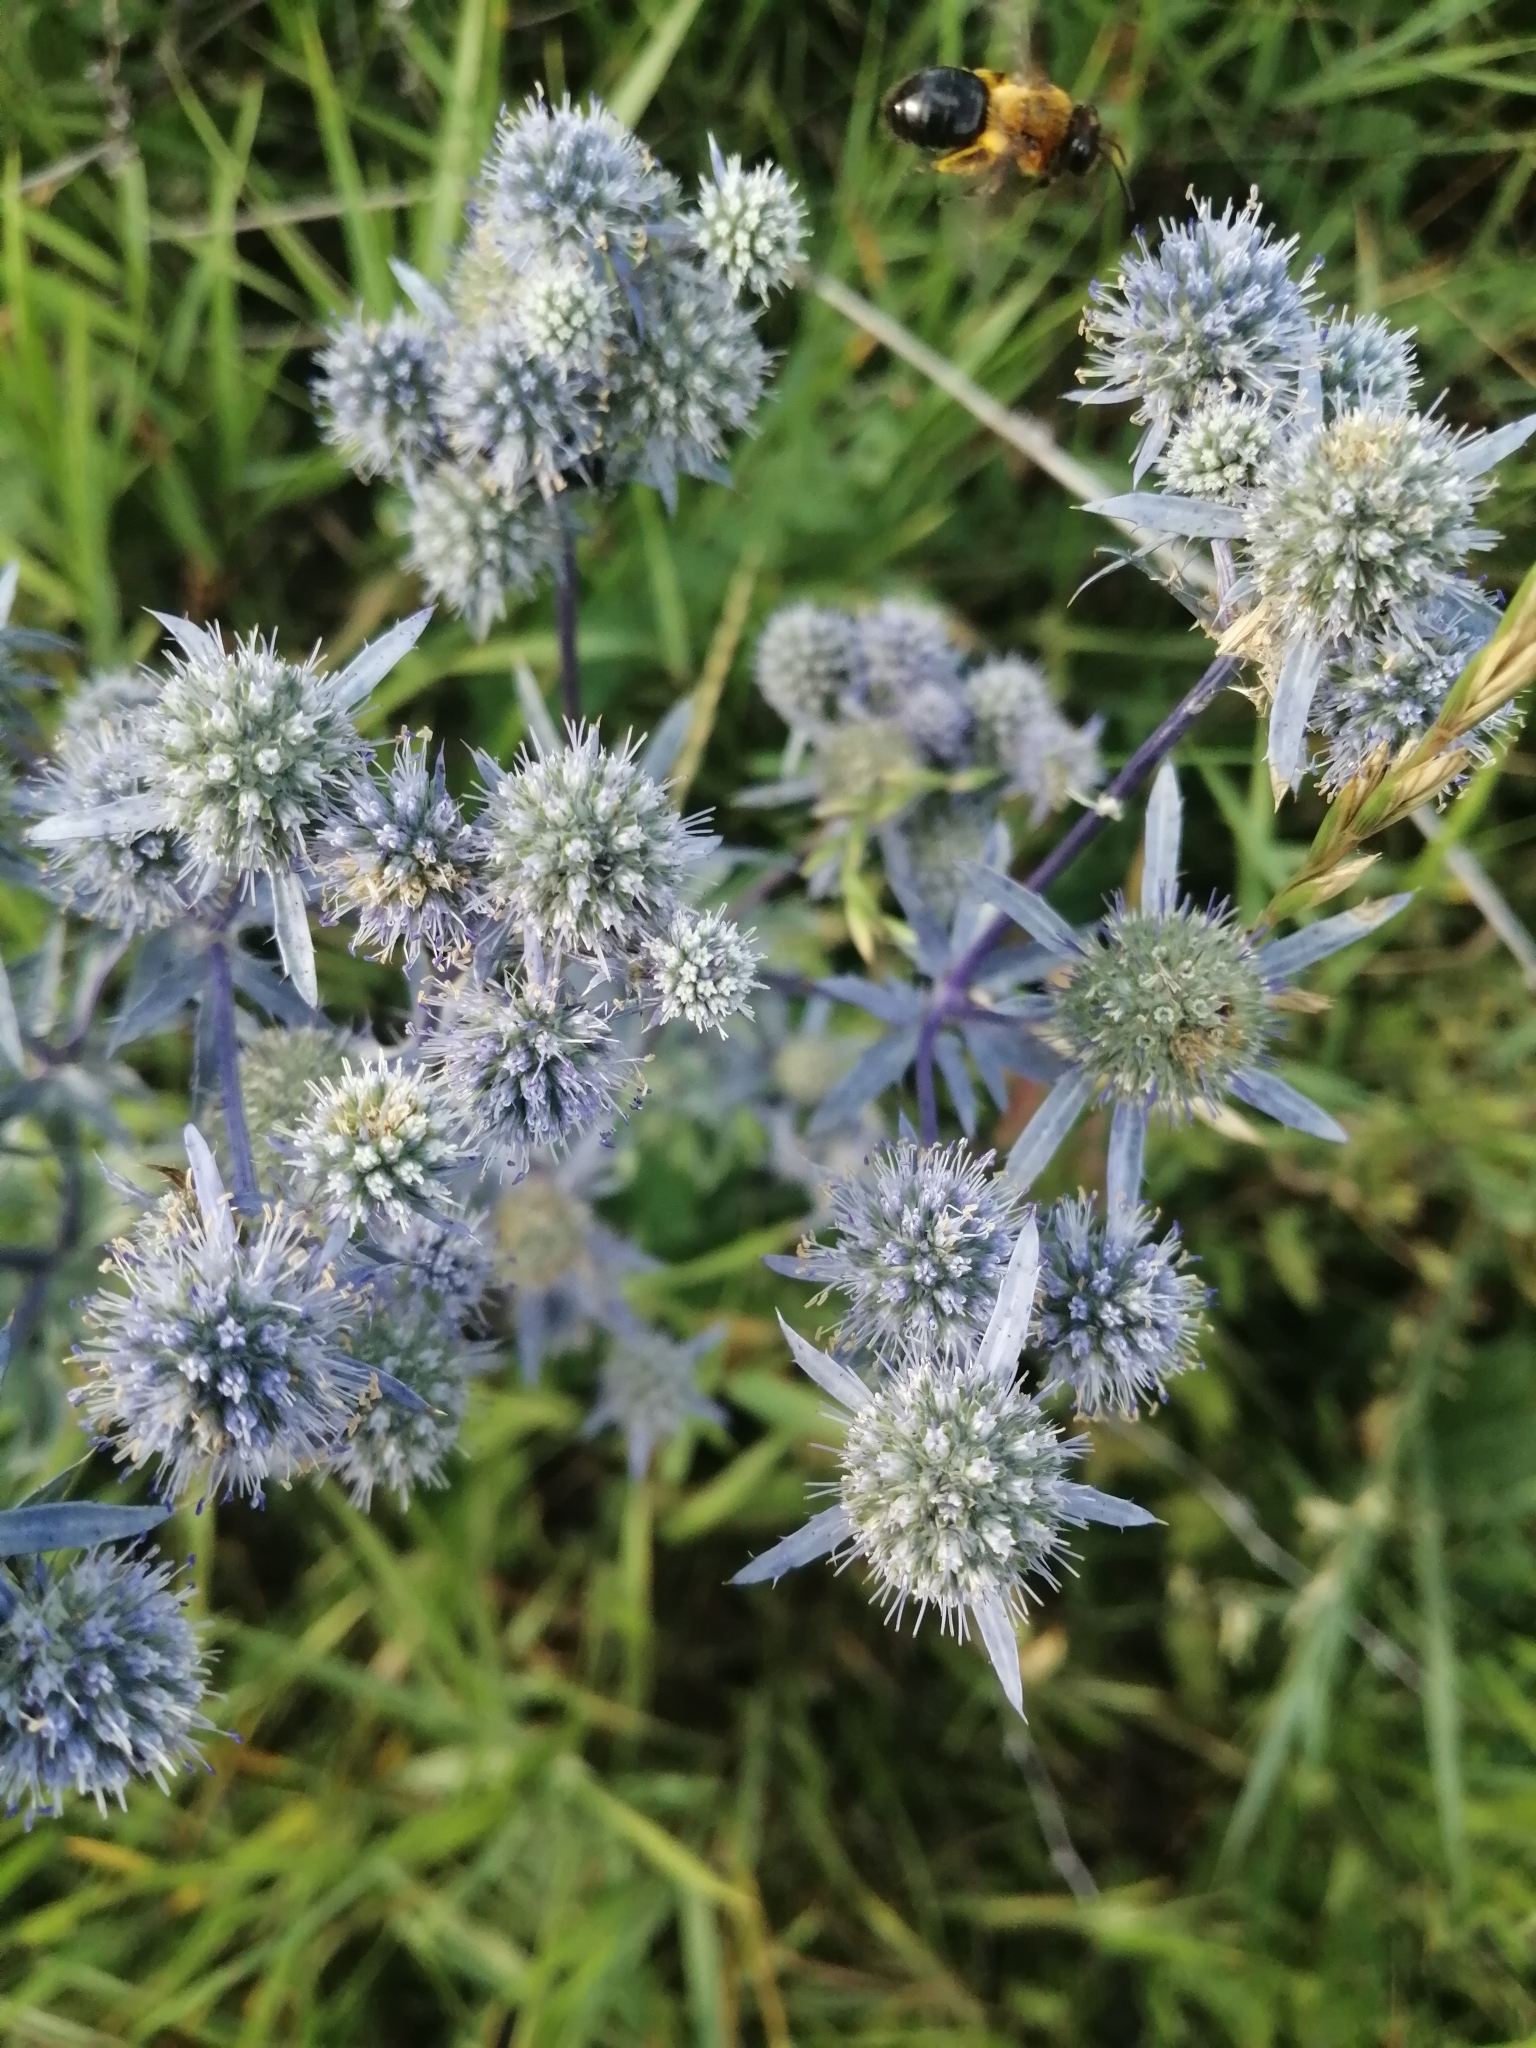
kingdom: Plantae
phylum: Tracheophyta
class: Magnoliopsida
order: Apiales
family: Apiaceae
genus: Eryngium
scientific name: Eryngium planum
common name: Blue eryngo
